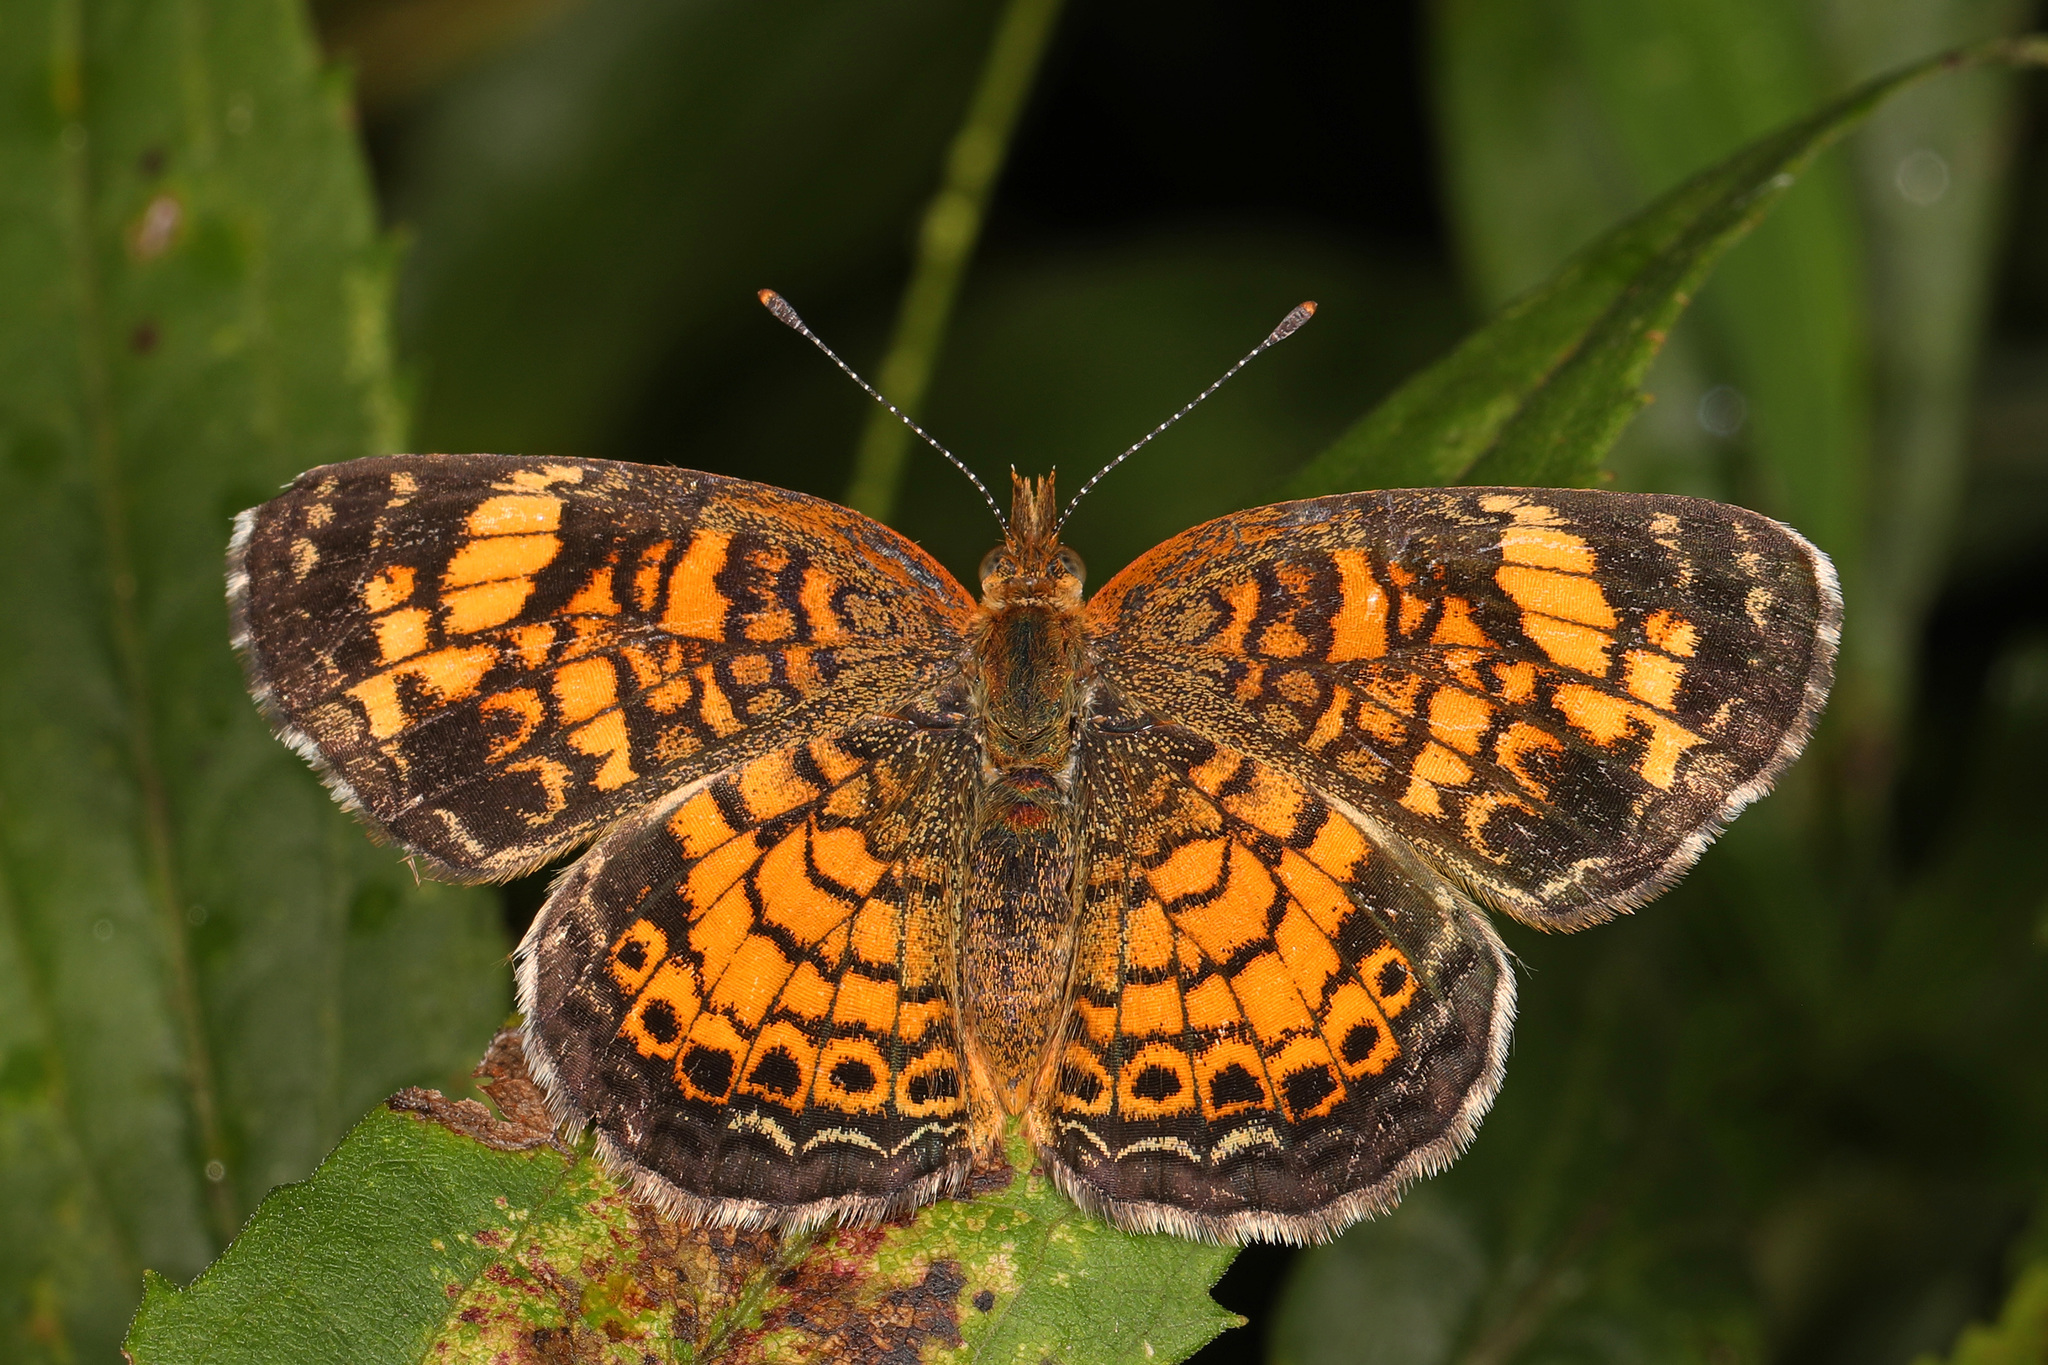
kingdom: Animalia
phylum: Arthropoda
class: Insecta
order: Lepidoptera
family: Nymphalidae
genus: Phyciodes
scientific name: Phyciodes tharos
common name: Pearl crescent
